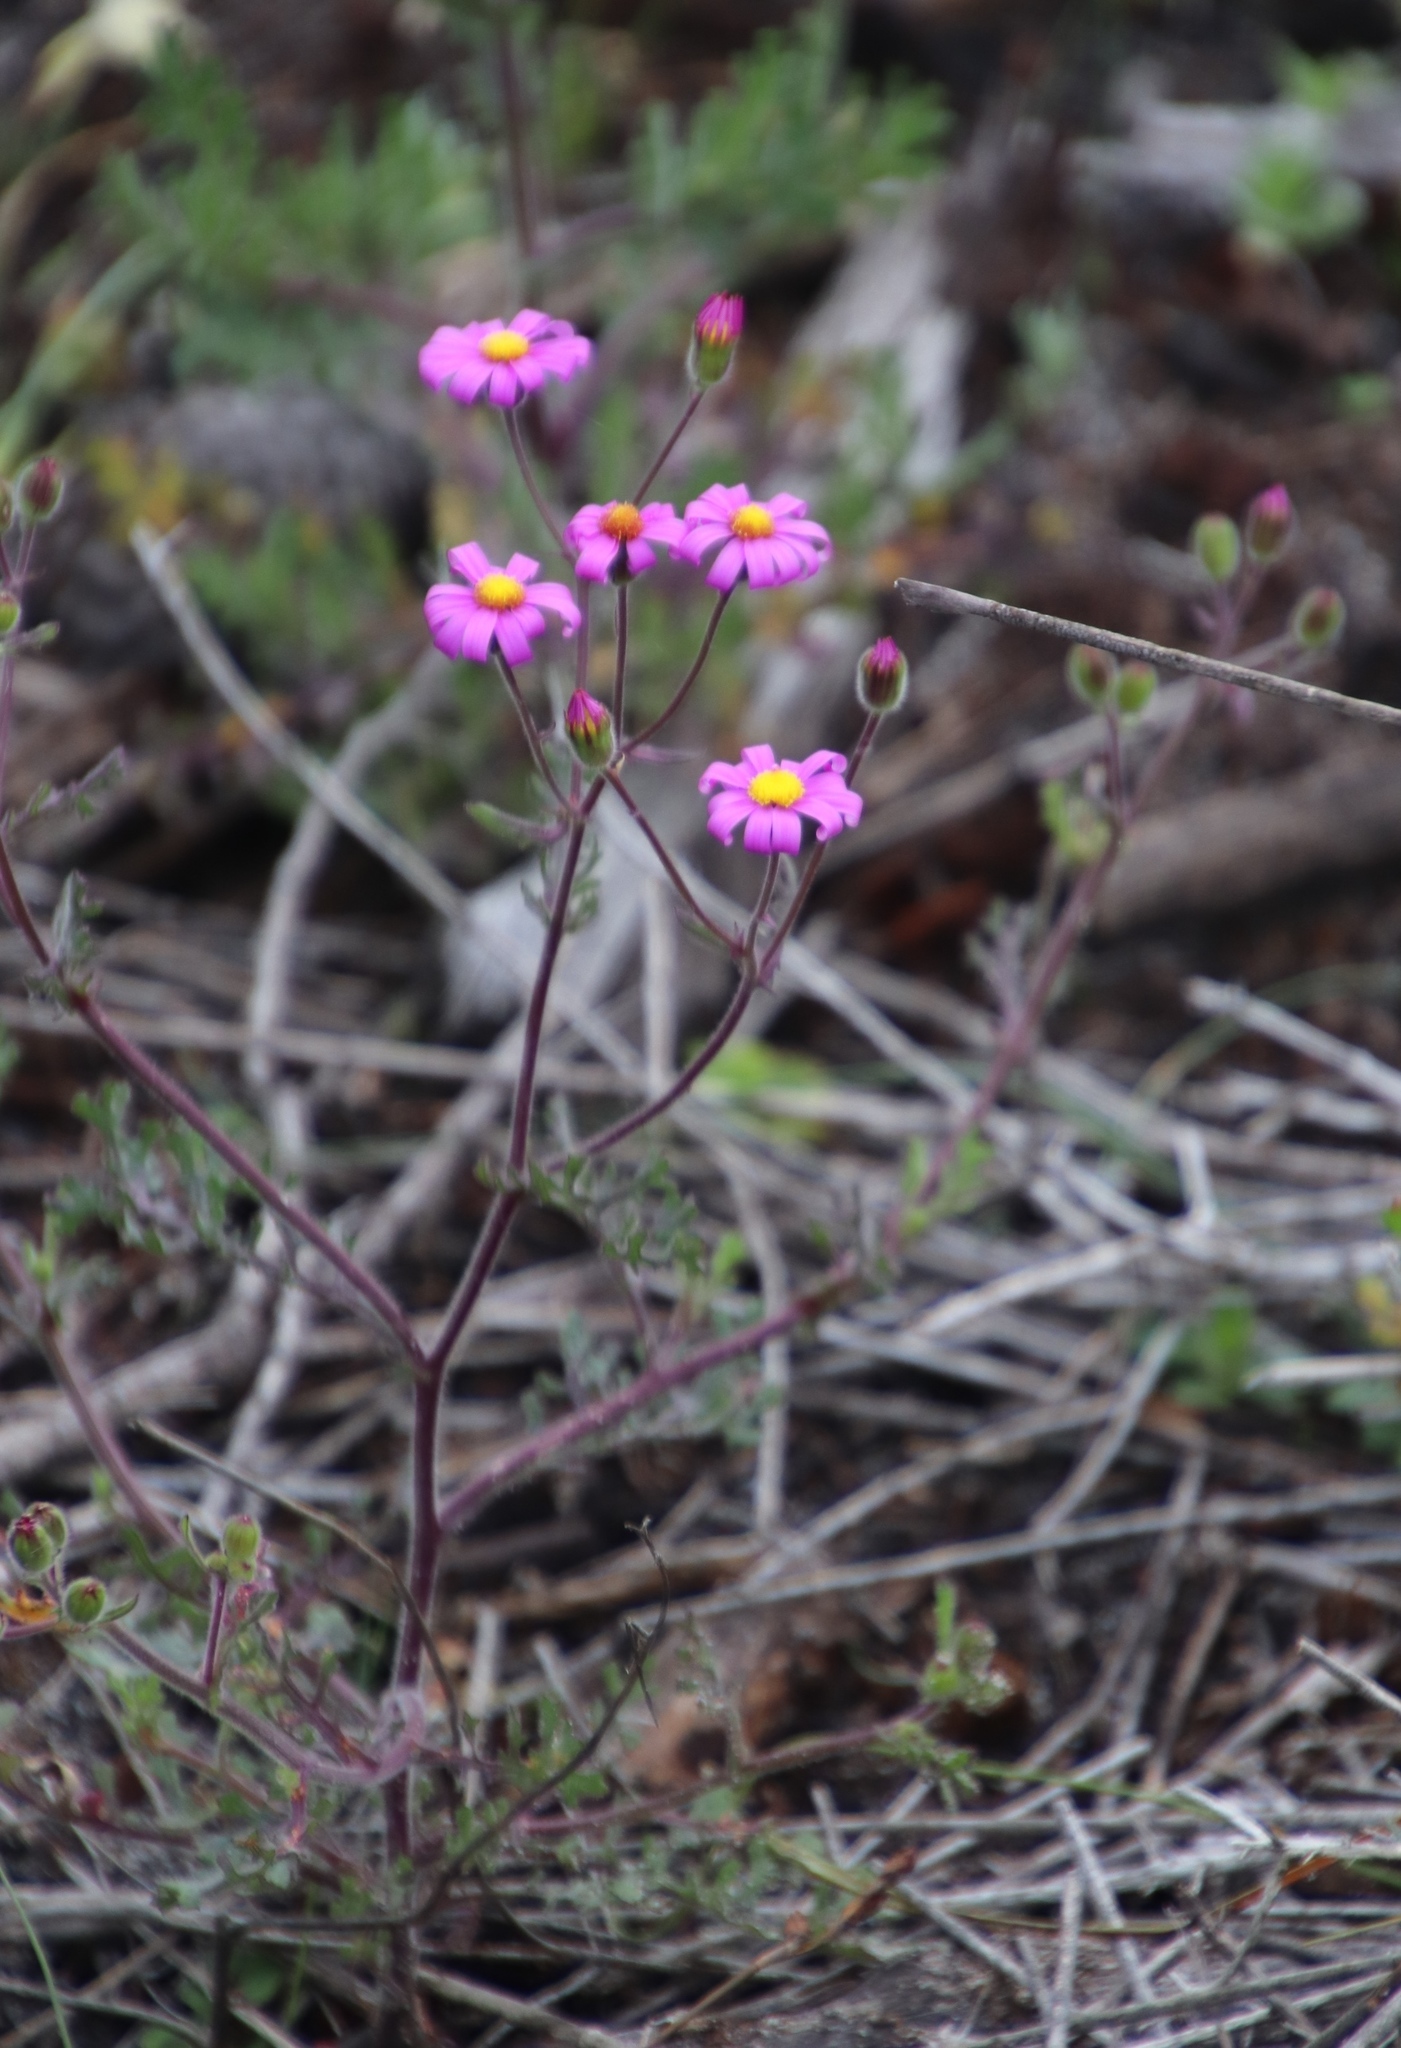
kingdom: Plantae
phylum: Tracheophyta
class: Magnoliopsida
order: Asterales
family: Asteraceae
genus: Senecio
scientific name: Senecio arenarius
